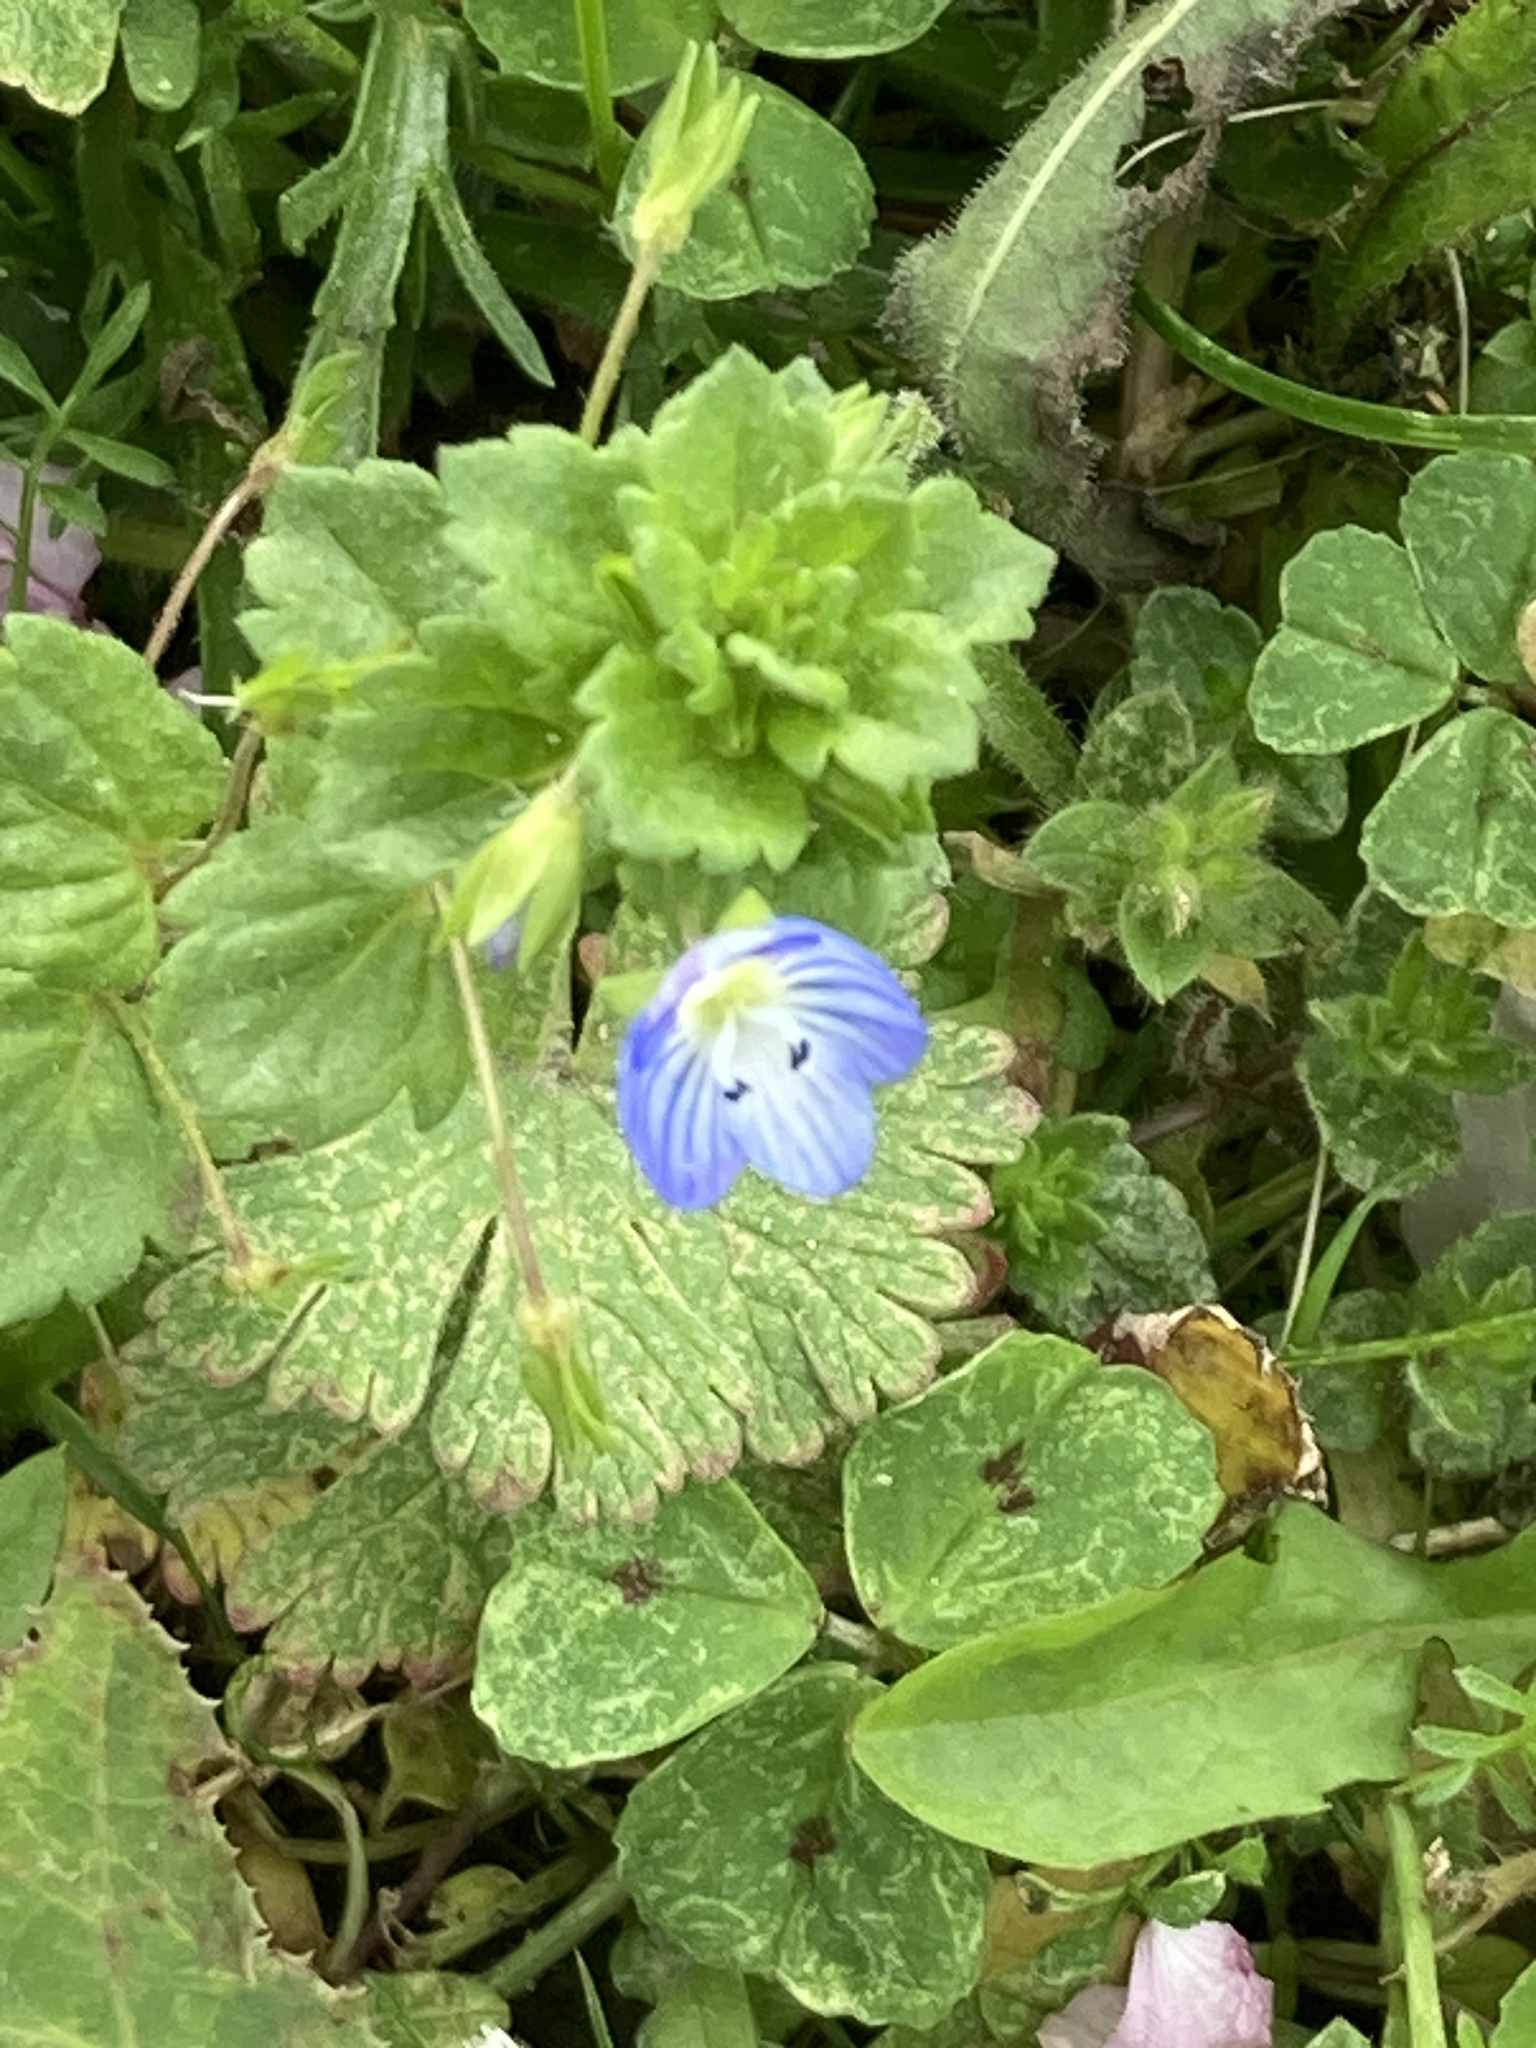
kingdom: Plantae
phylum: Tracheophyta
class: Magnoliopsida
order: Lamiales
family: Plantaginaceae
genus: Veronica
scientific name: Veronica persica
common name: Common field-speedwell
